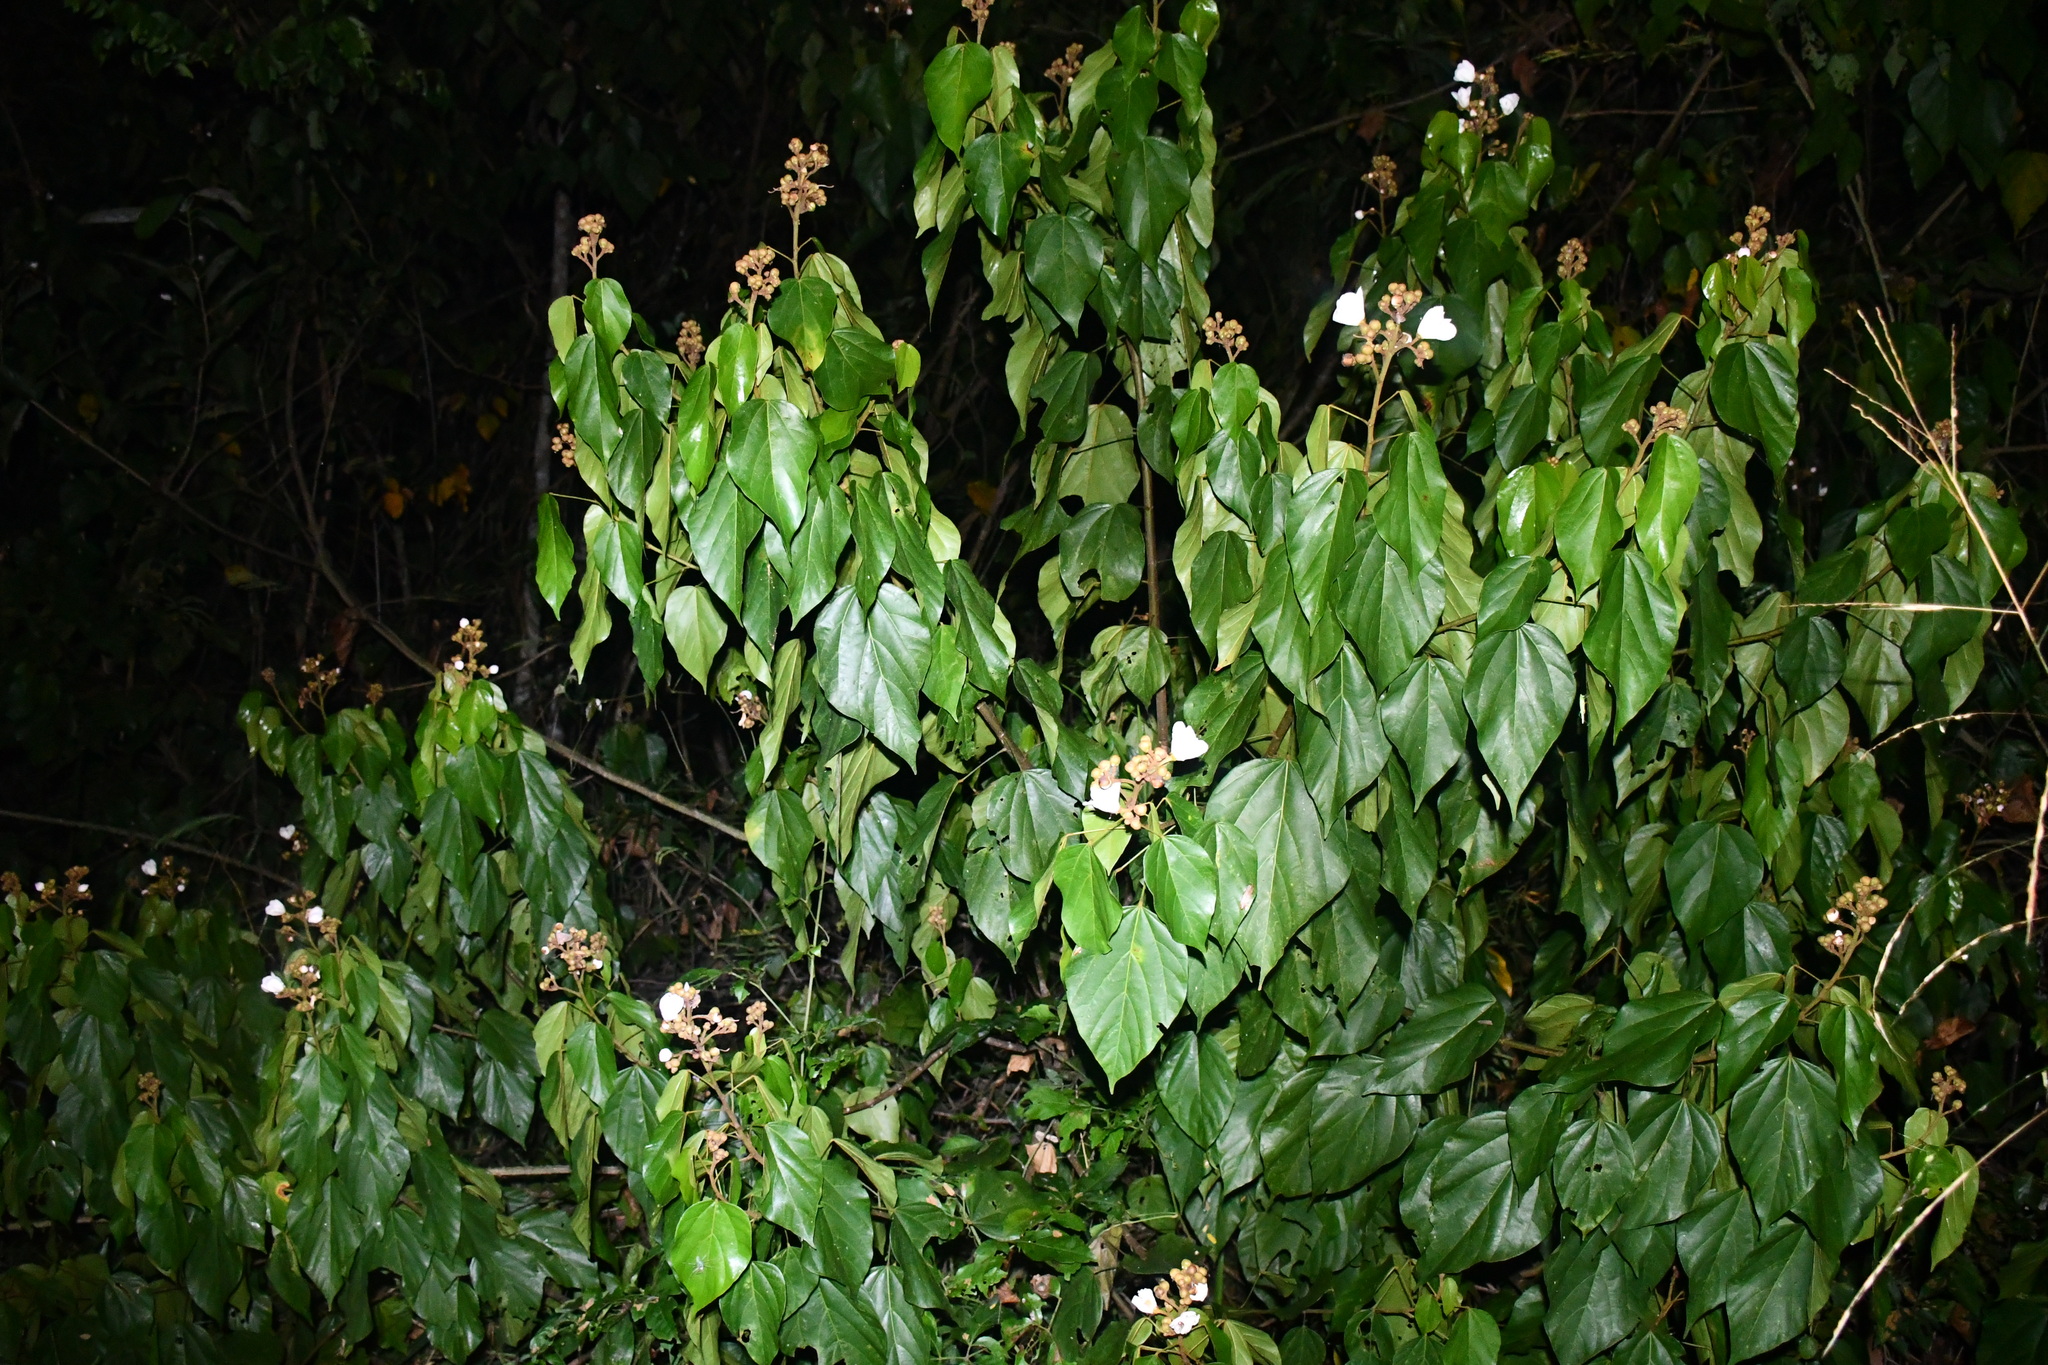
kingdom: Plantae
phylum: Tracheophyta
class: Magnoliopsida
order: Malvales
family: Bixaceae
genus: Bixa
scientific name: Bixa orellana
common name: Lipsticktree
